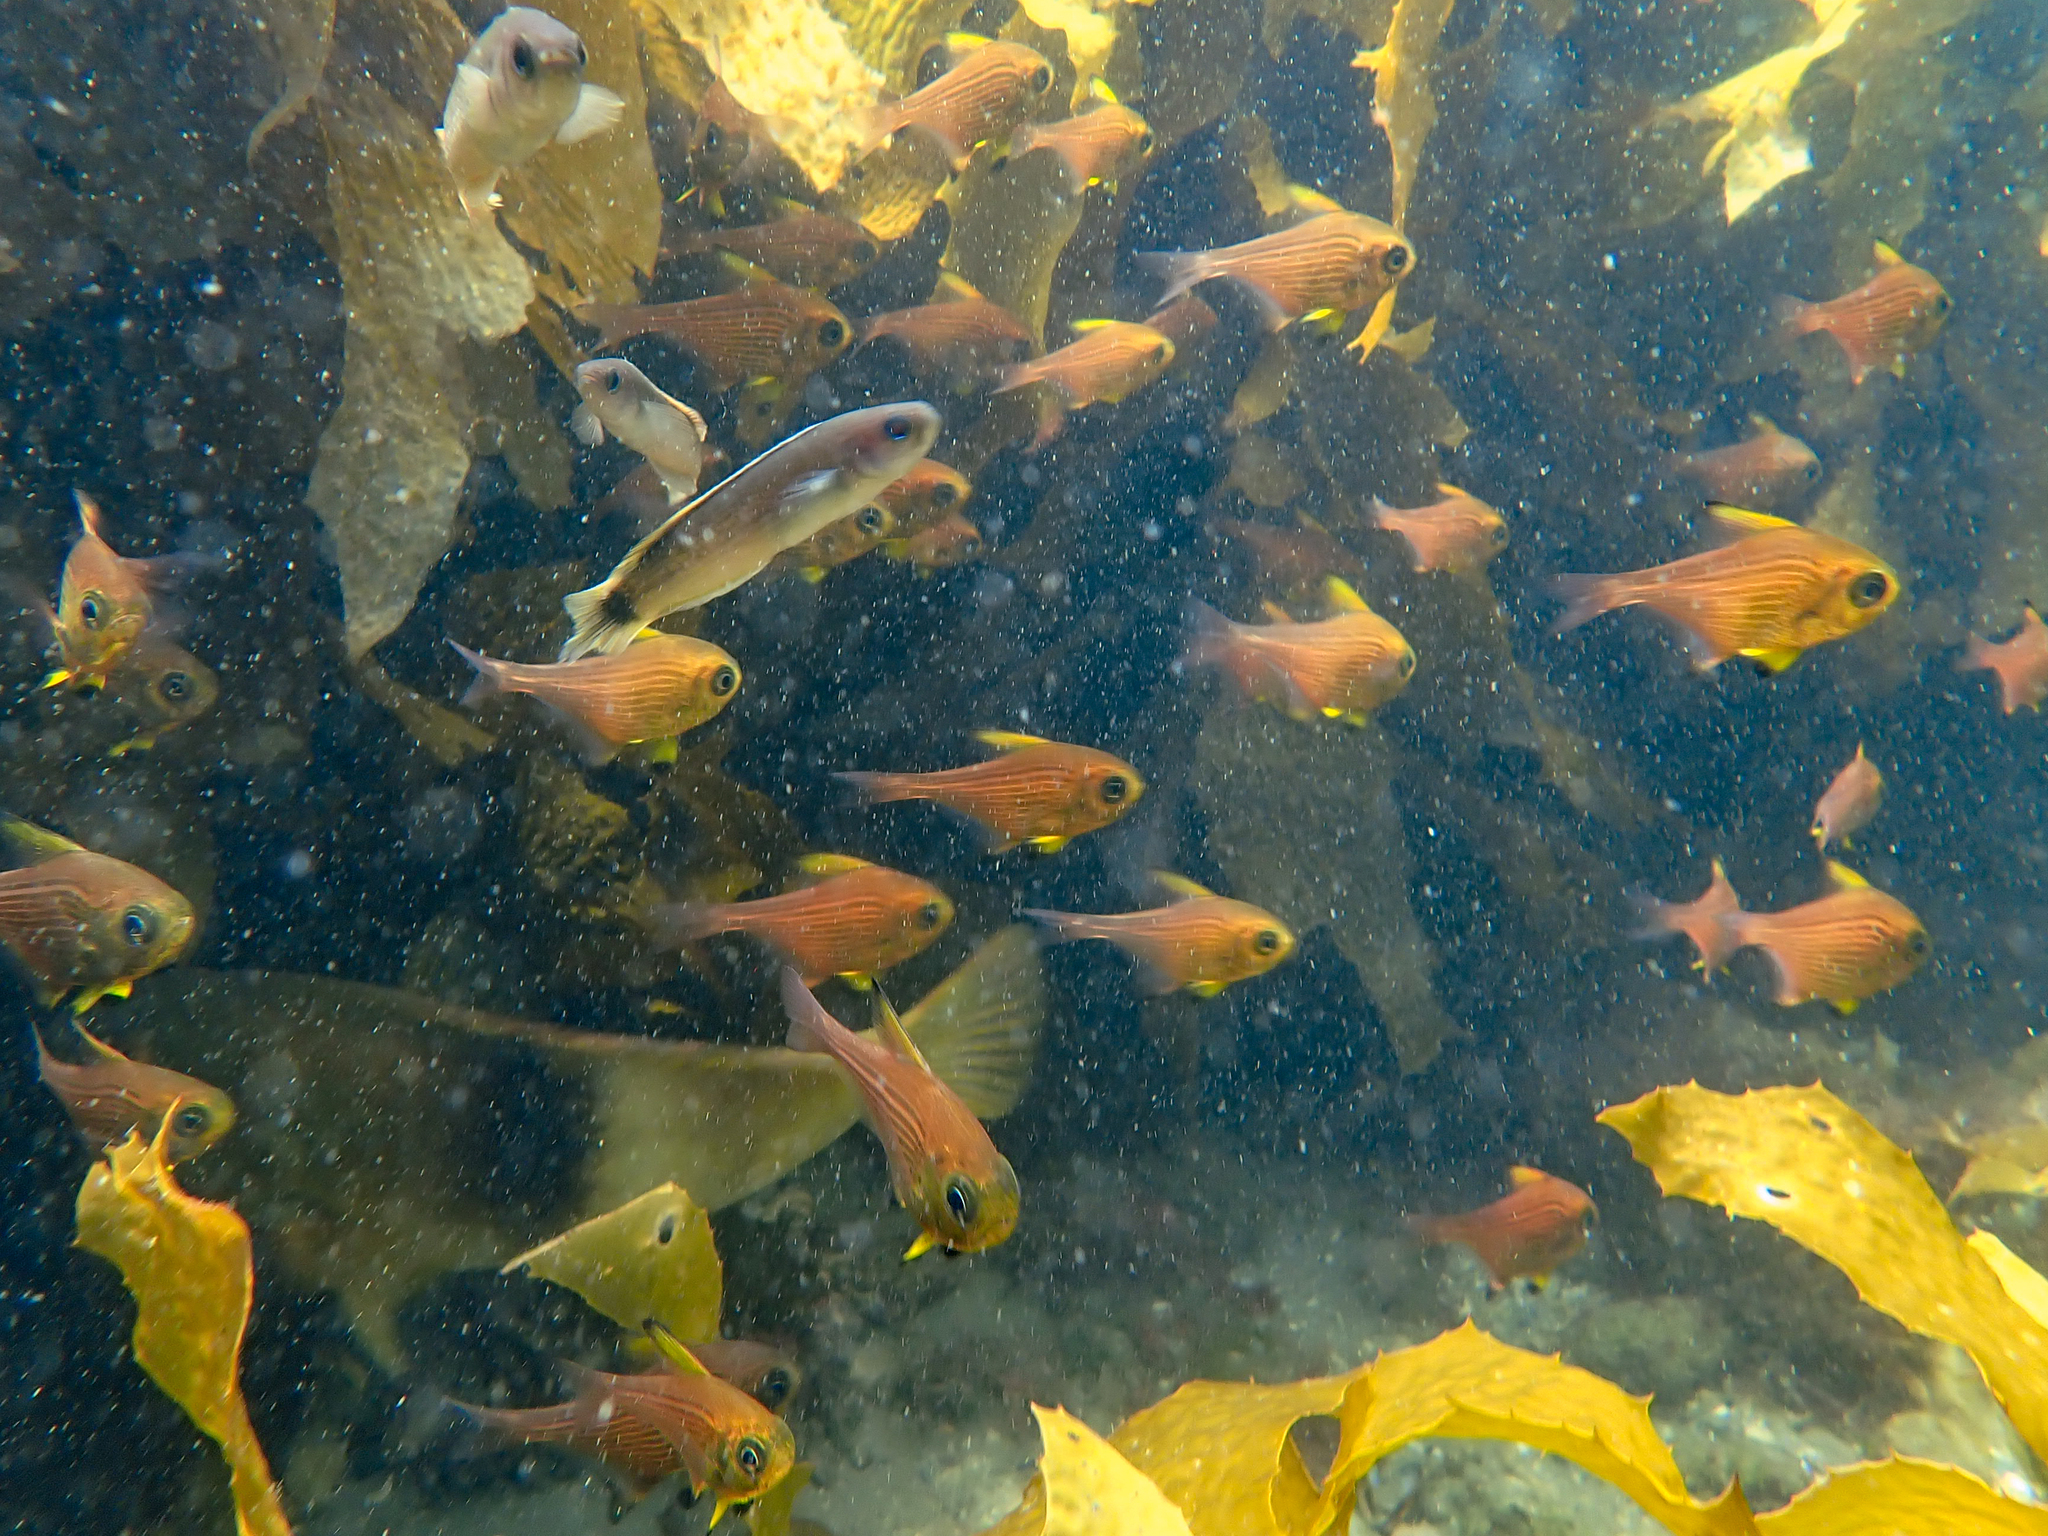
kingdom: Animalia
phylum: Chordata
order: Perciformes
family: Pempheridae
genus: Pempheris
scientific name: Pempheris multiradiata
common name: Big-scaled bullseye
